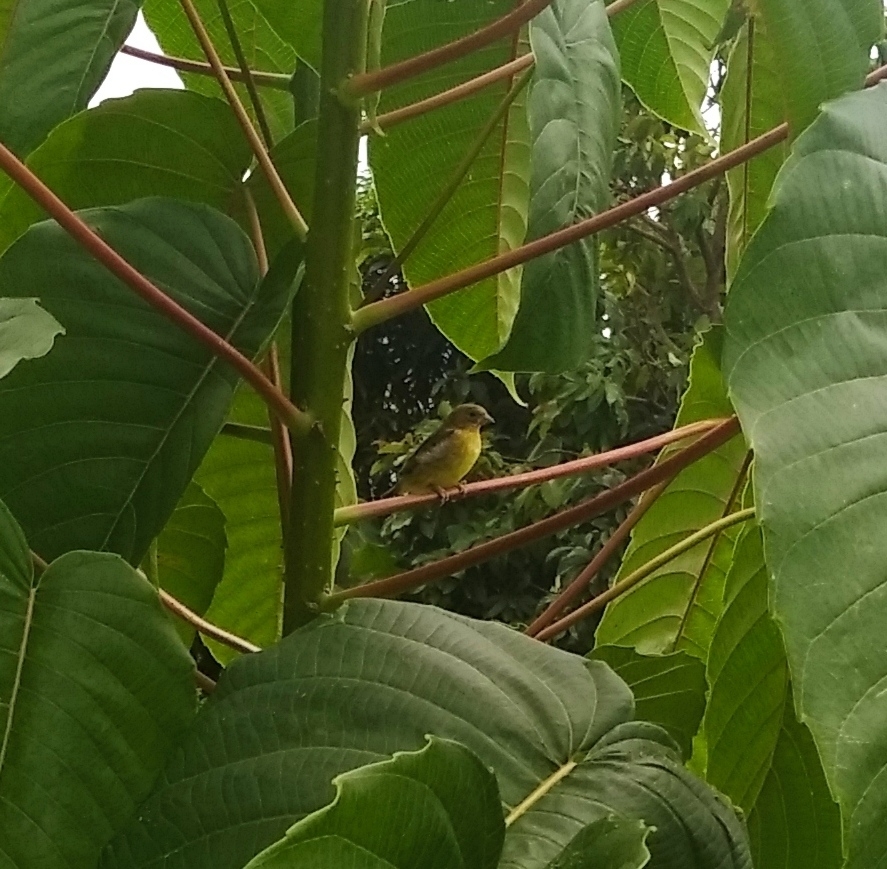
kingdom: Animalia
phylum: Chordata
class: Aves
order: Passeriformes
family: Fringillidae
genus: Spinus
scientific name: Spinus psaltria
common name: Lesser goldfinch
